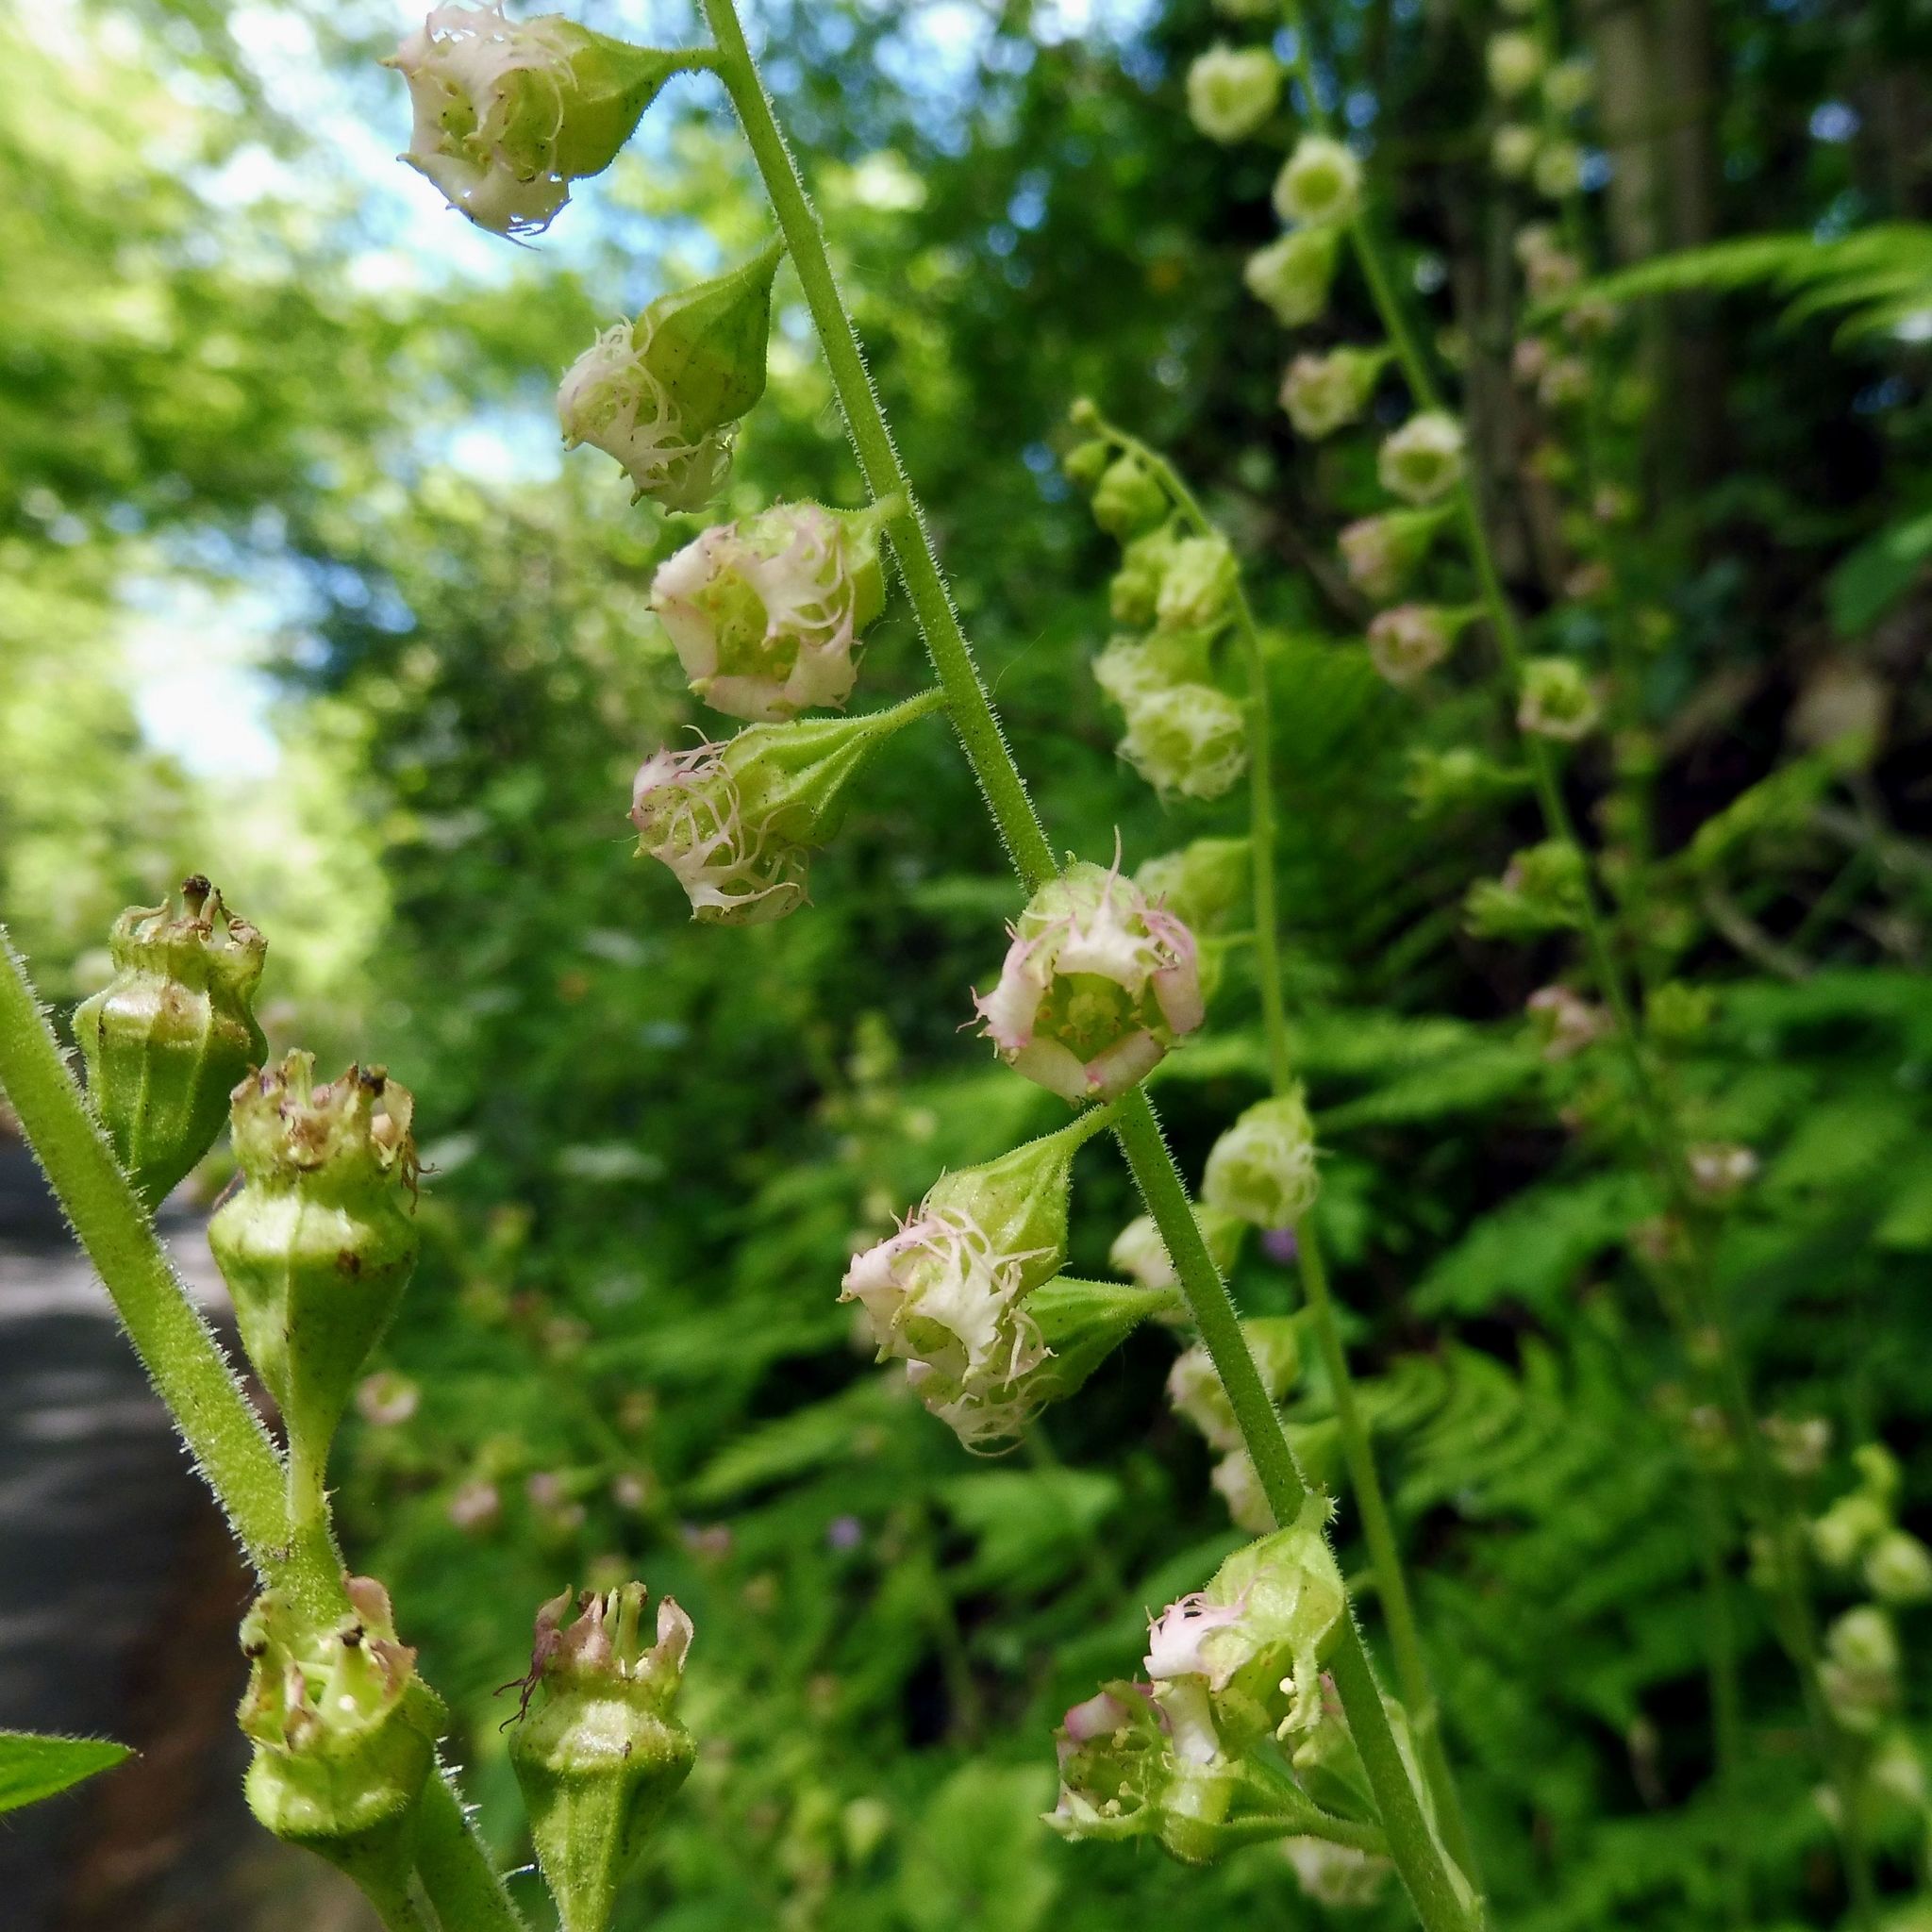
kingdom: Plantae
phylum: Tracheophyta
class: Magnoliopsida
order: Saxifragales
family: Saxifragaceae
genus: Tellima
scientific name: Tellima grandiflora
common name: Fringecups
